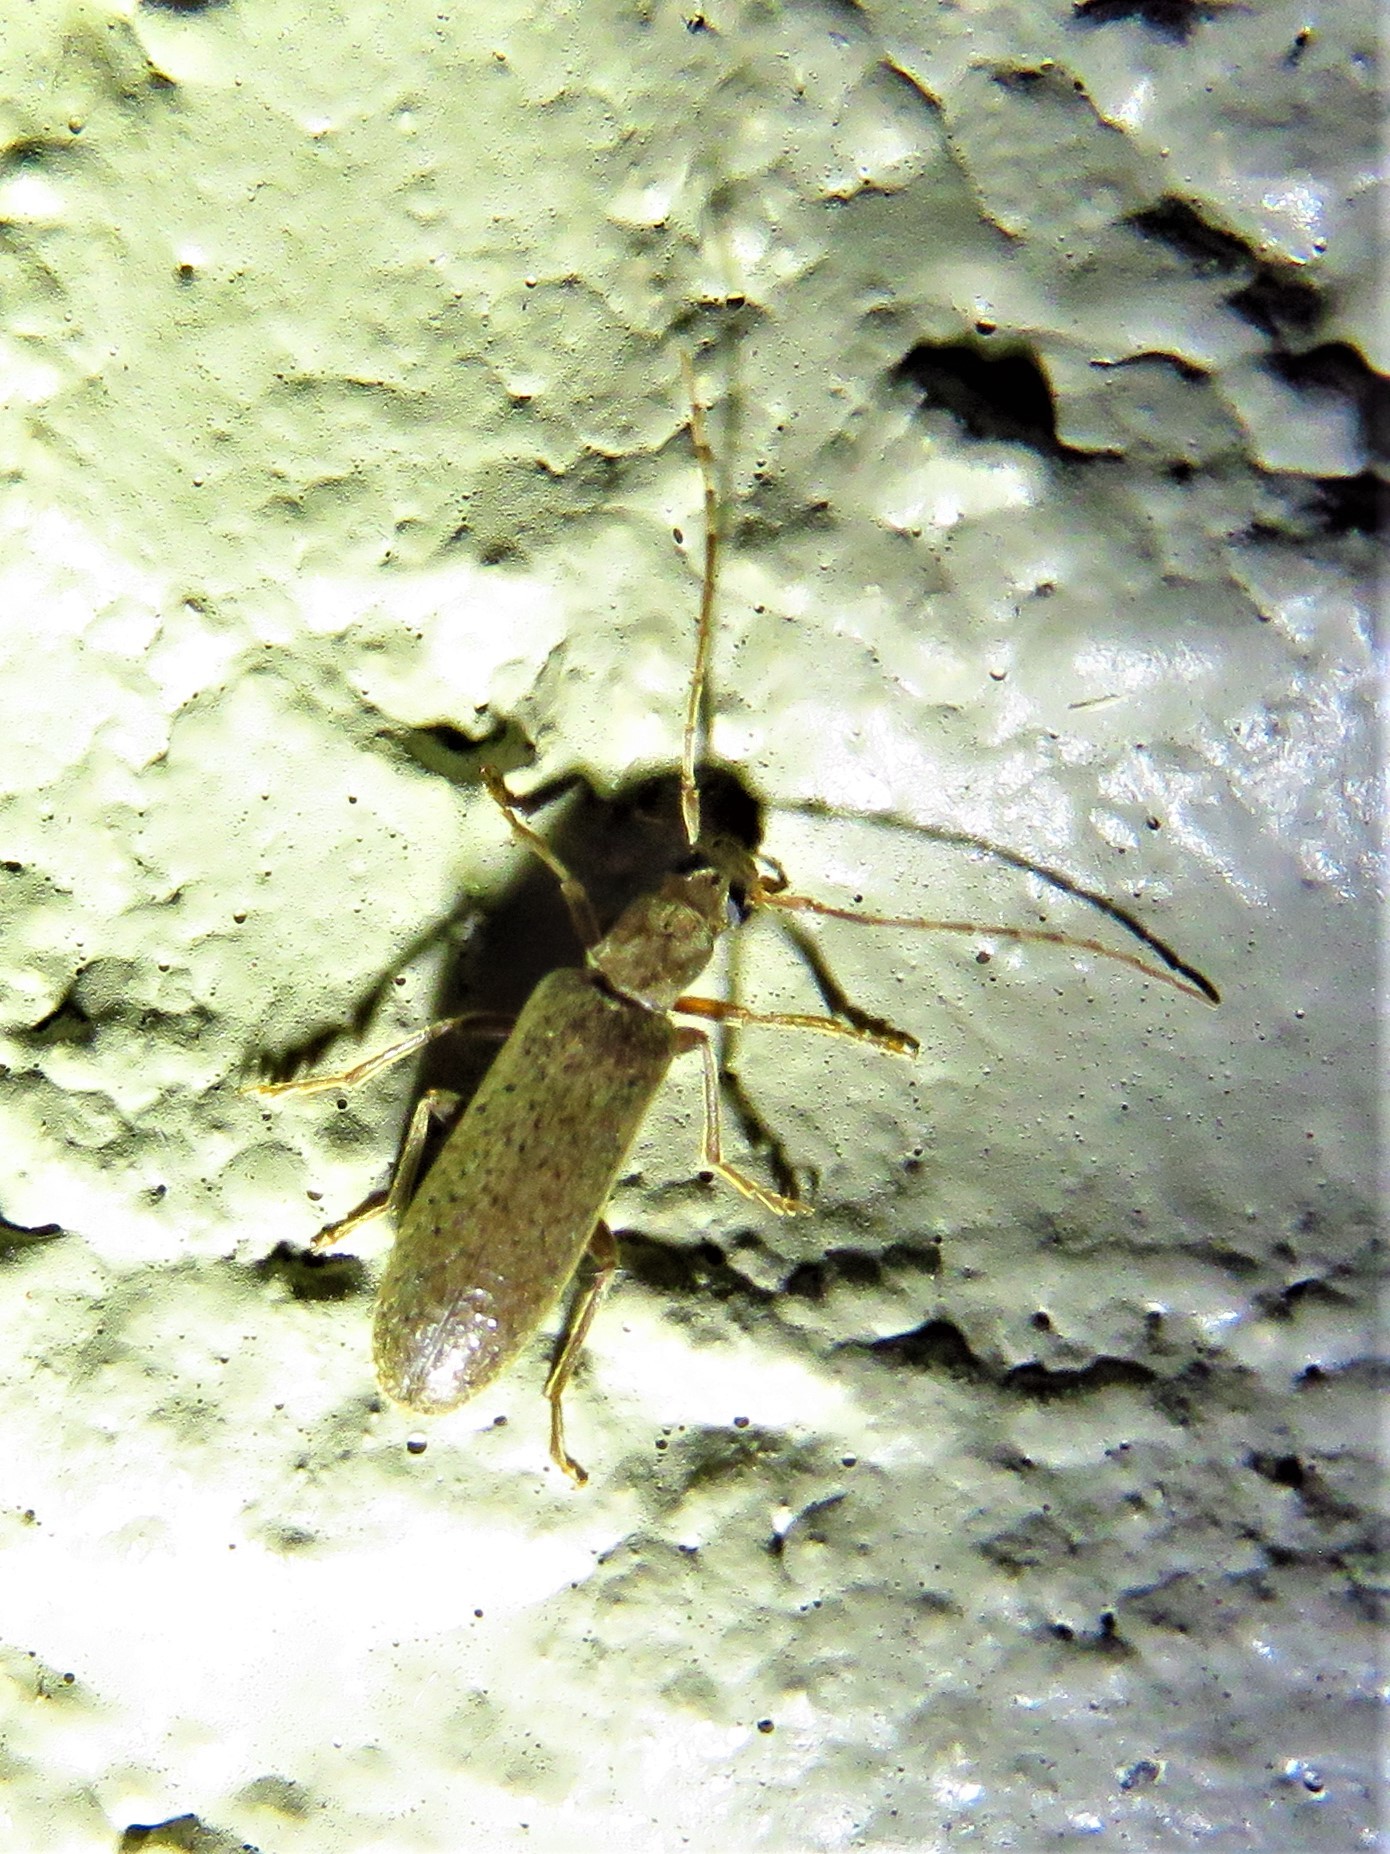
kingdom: Animalia
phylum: Arthropoda
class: Insecta
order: Coleoptera
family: Oedemeridae
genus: Sparedrus
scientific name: Sparedrus aspersus
